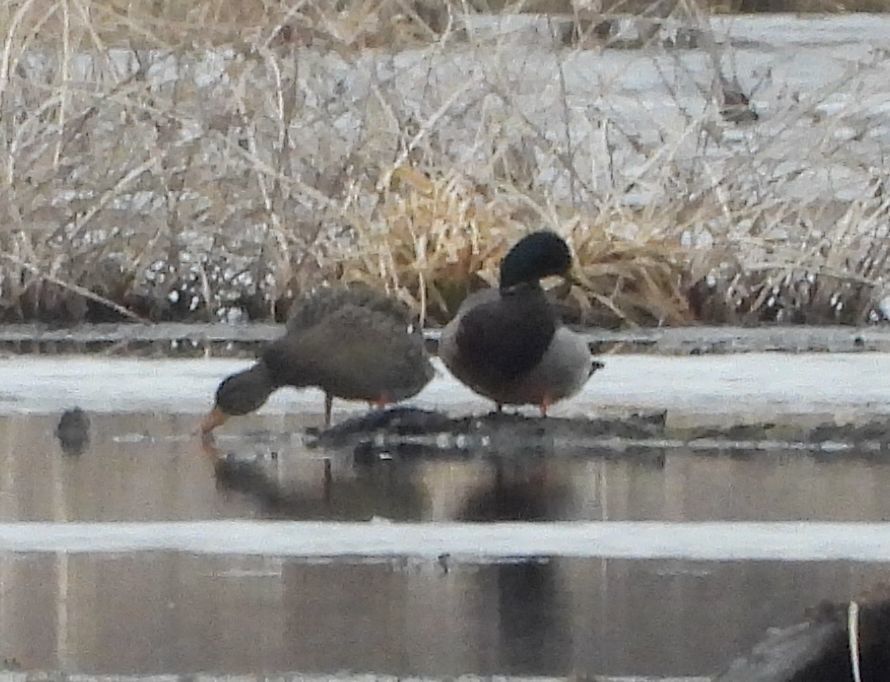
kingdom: Animalia
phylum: Chordata
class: Aves
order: Anseriformes
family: Anatidae
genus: Anas
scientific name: Anas platyrhynchos
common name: Mallard
